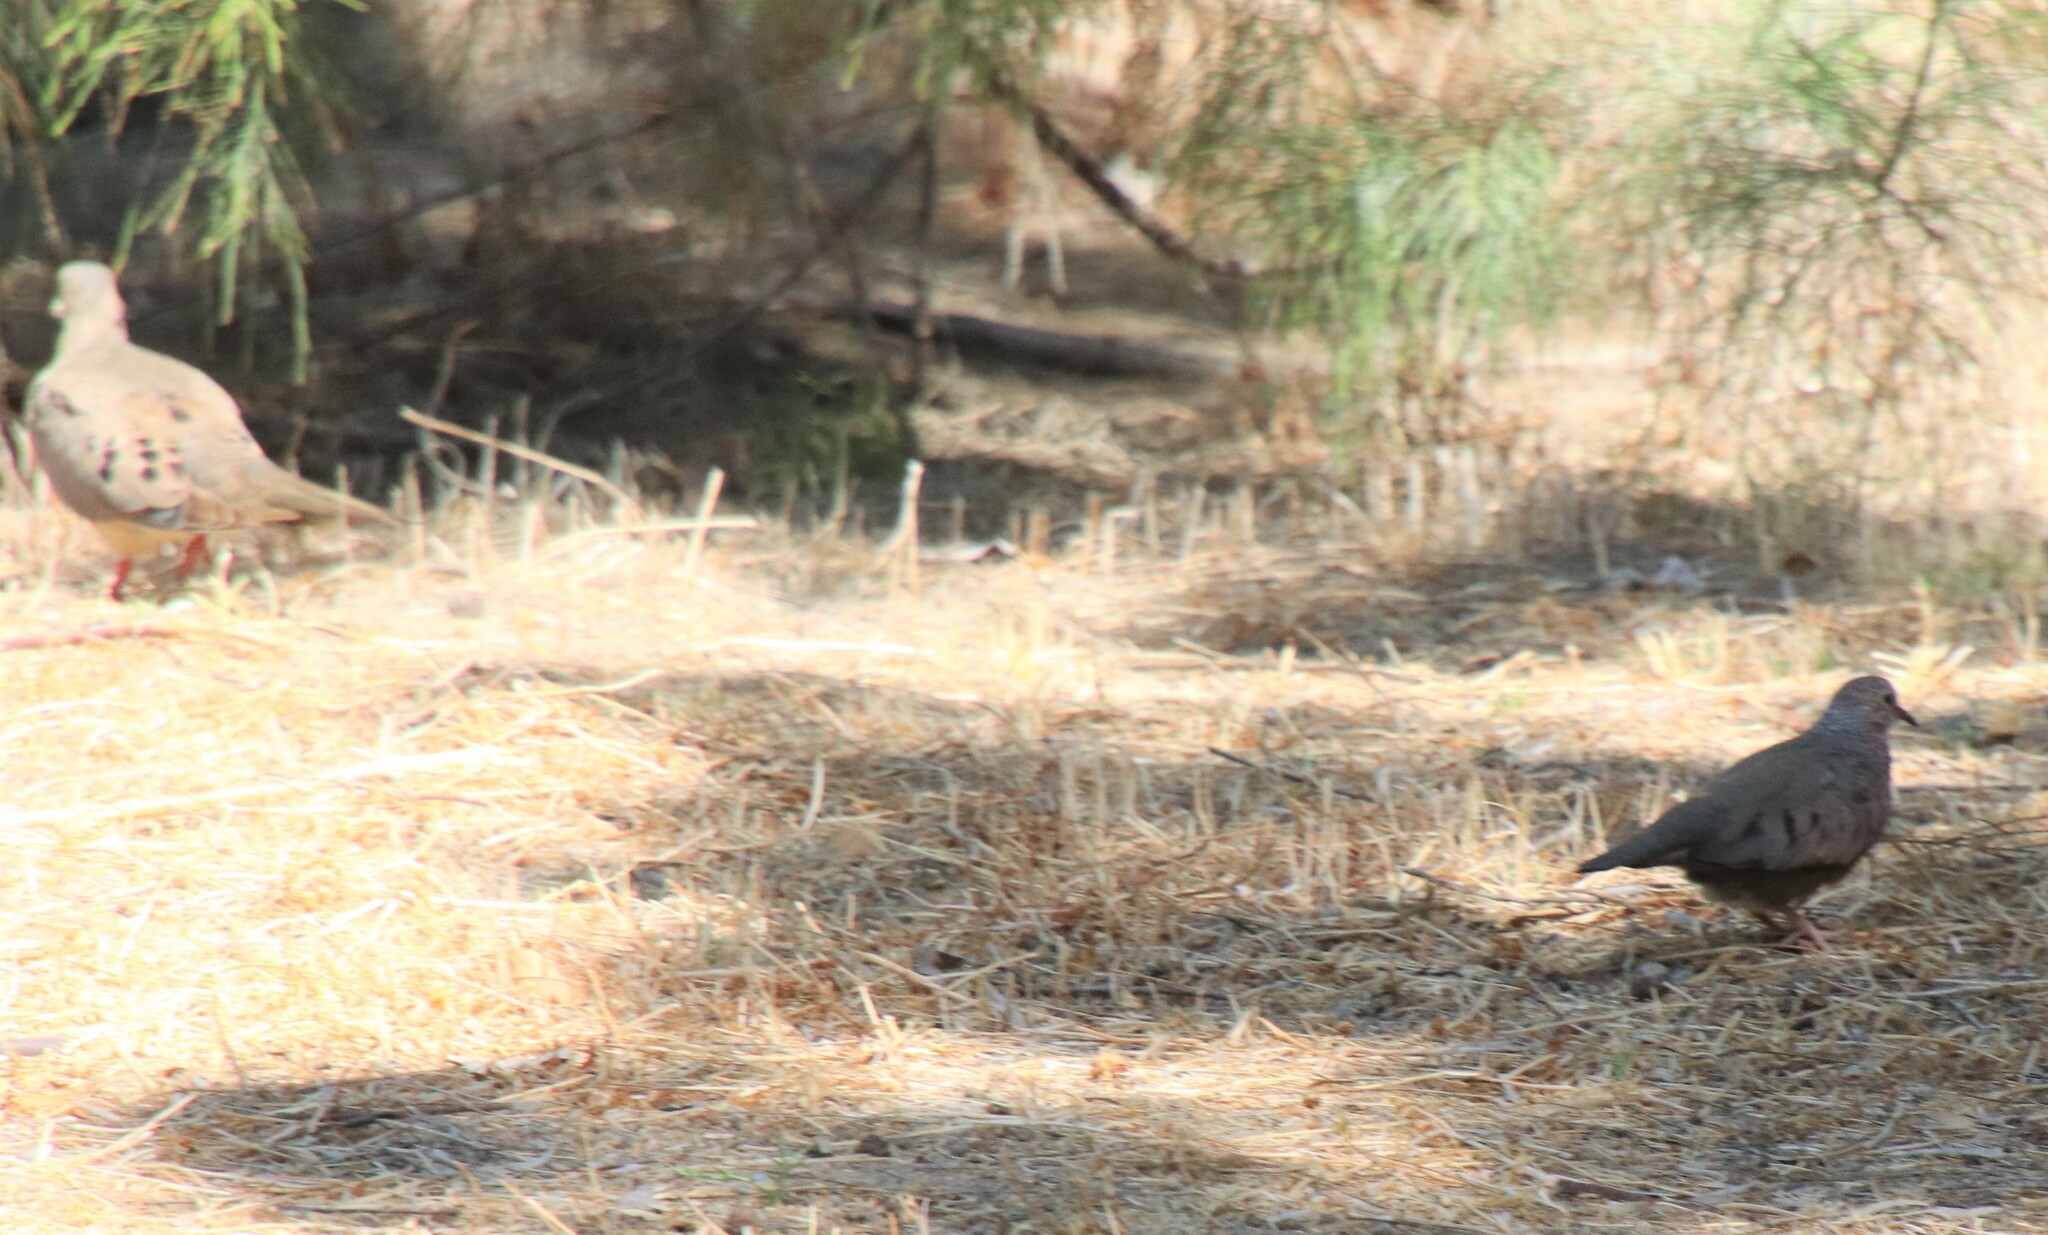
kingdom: Animalia
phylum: Chordata
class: Aves
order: Columbiformes
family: Columbidae
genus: Columbina
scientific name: Columbina passerina
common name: Common ground-dove
